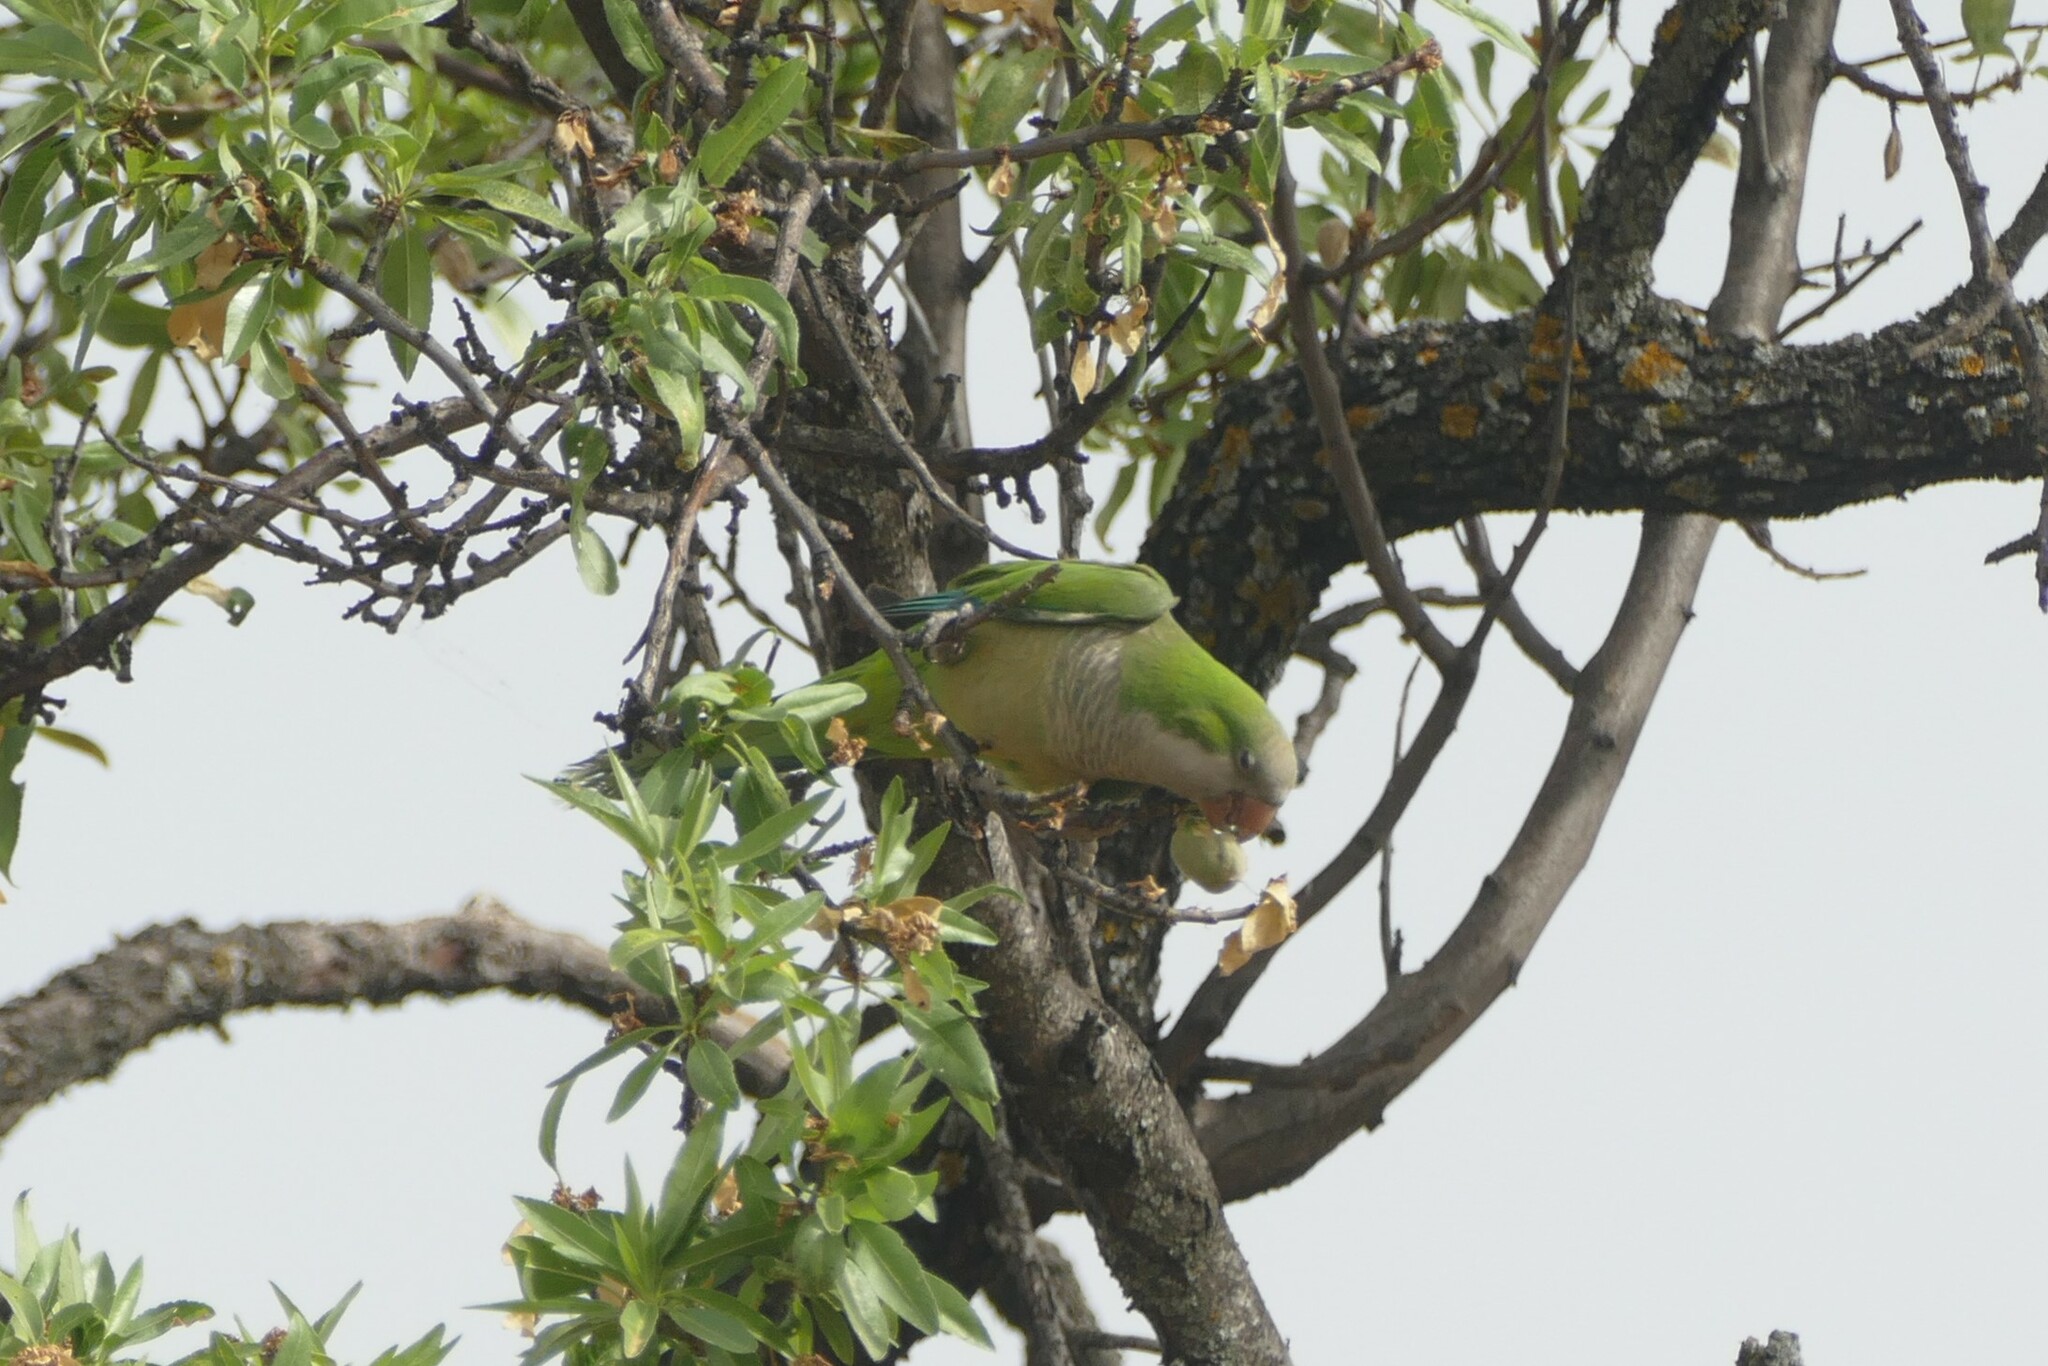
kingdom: Animalia
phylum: Chordata
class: Aves
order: Psittaciformes
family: Psittacidae
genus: Myiopsitta
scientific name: Myiopsitta monachus
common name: Monk parakeet
